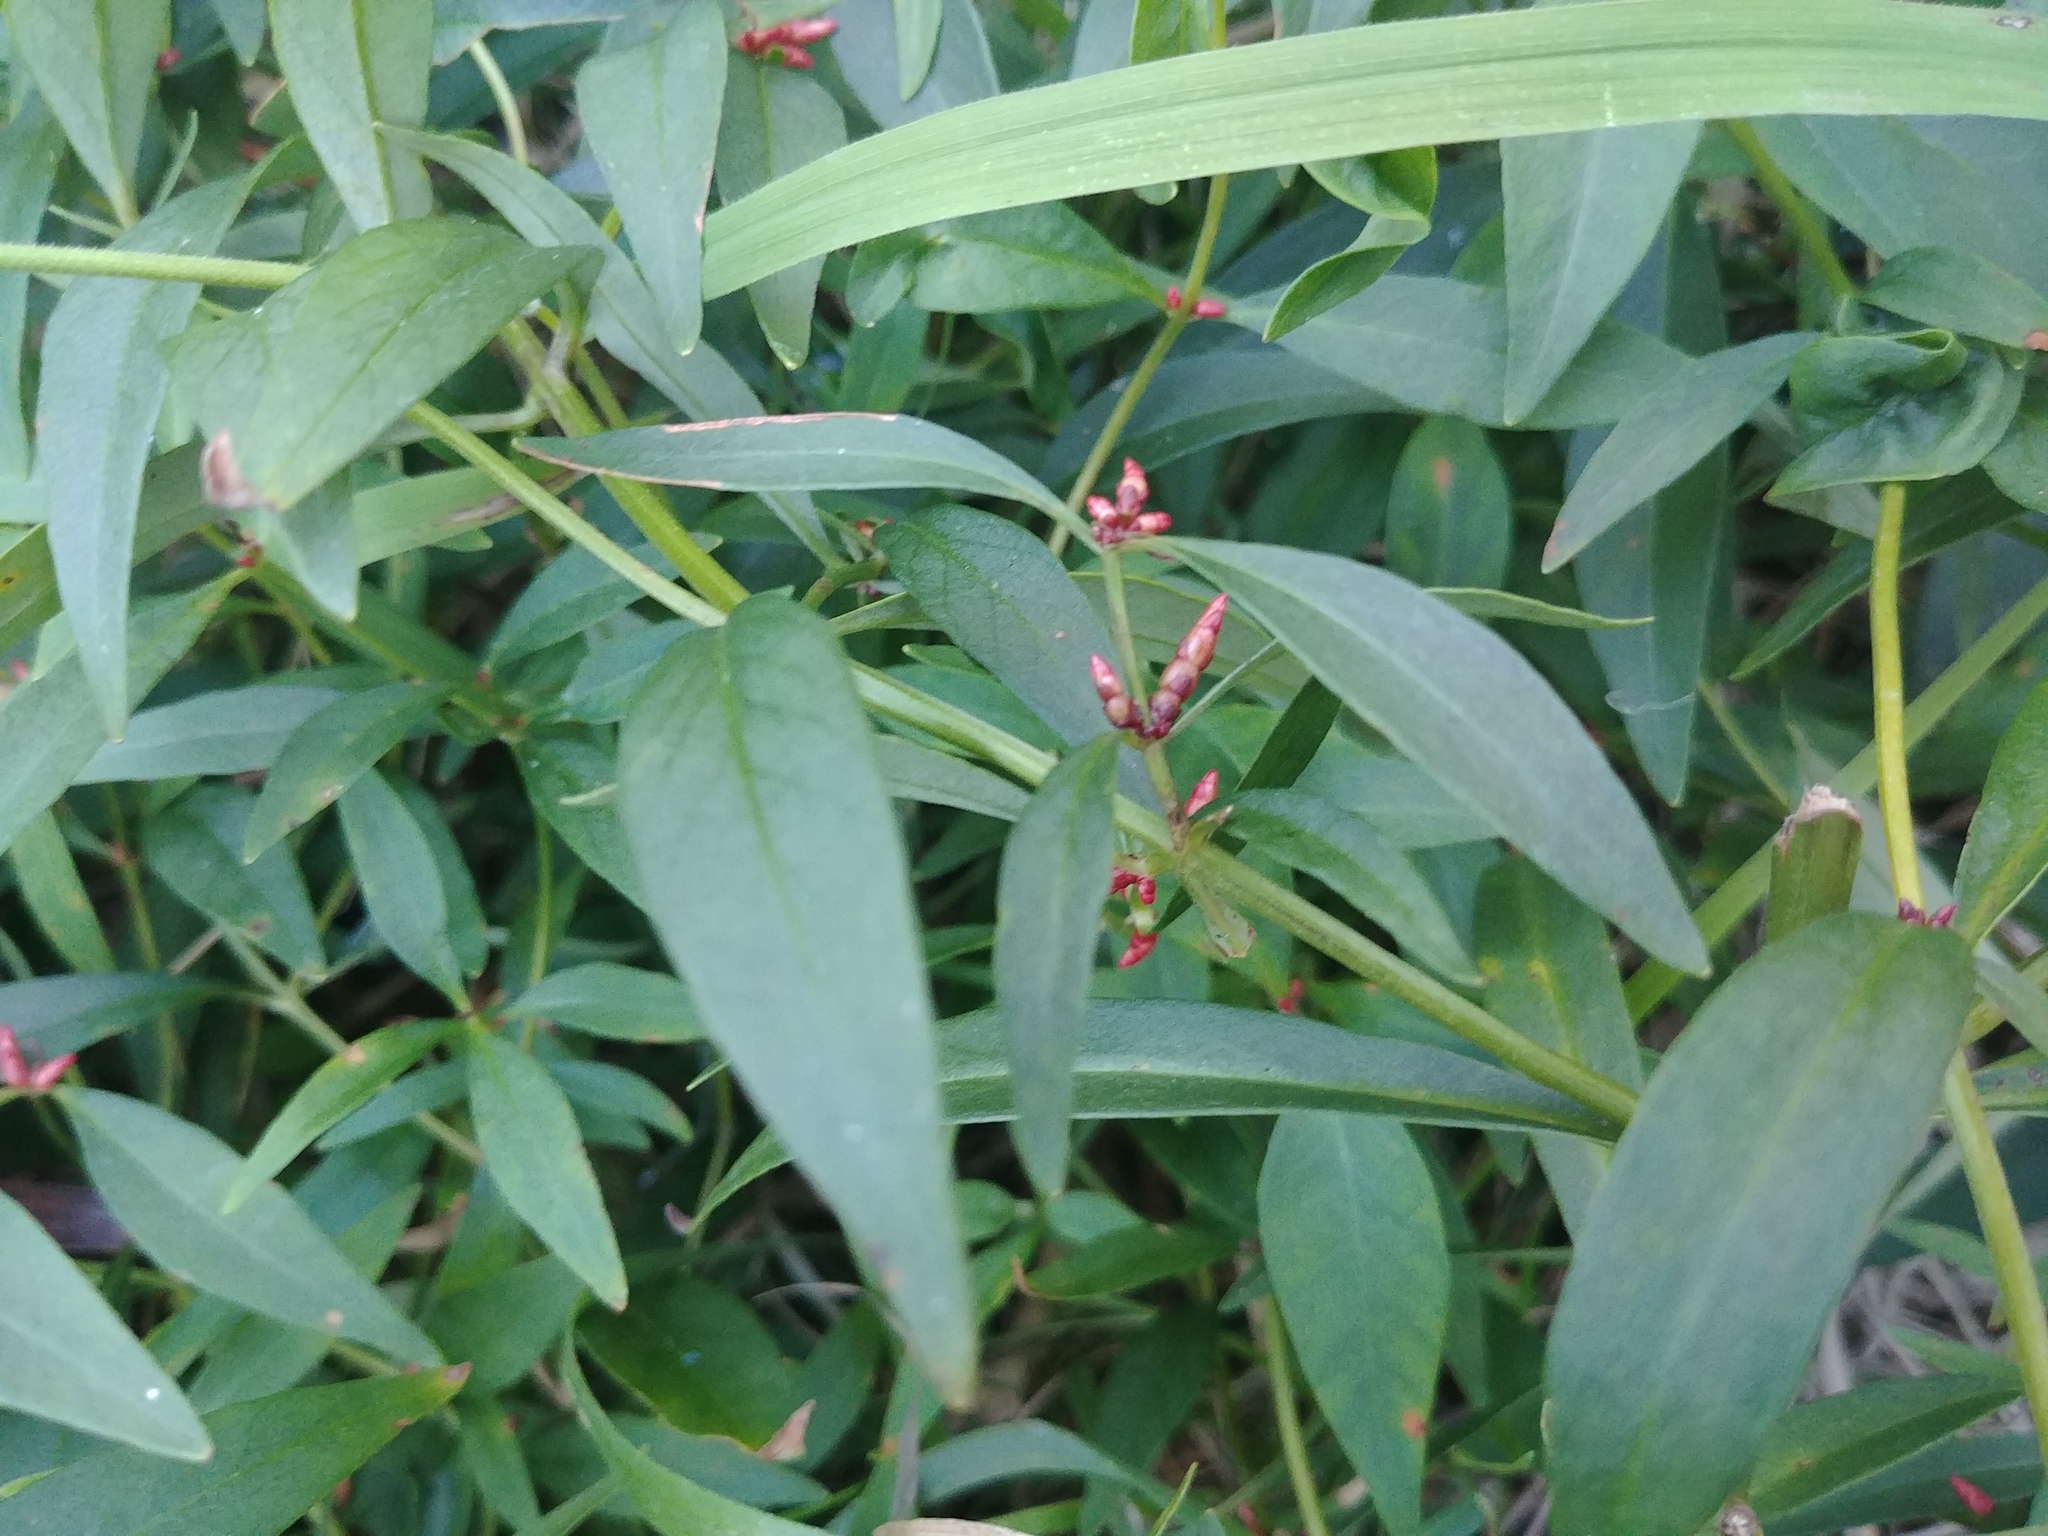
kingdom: Plantae
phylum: Tracheophyta
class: Magnoliopsida
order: Ericales
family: Primulaceae
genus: Lysimachia
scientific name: Lysimachia terrestris
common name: Lake loosestrife
